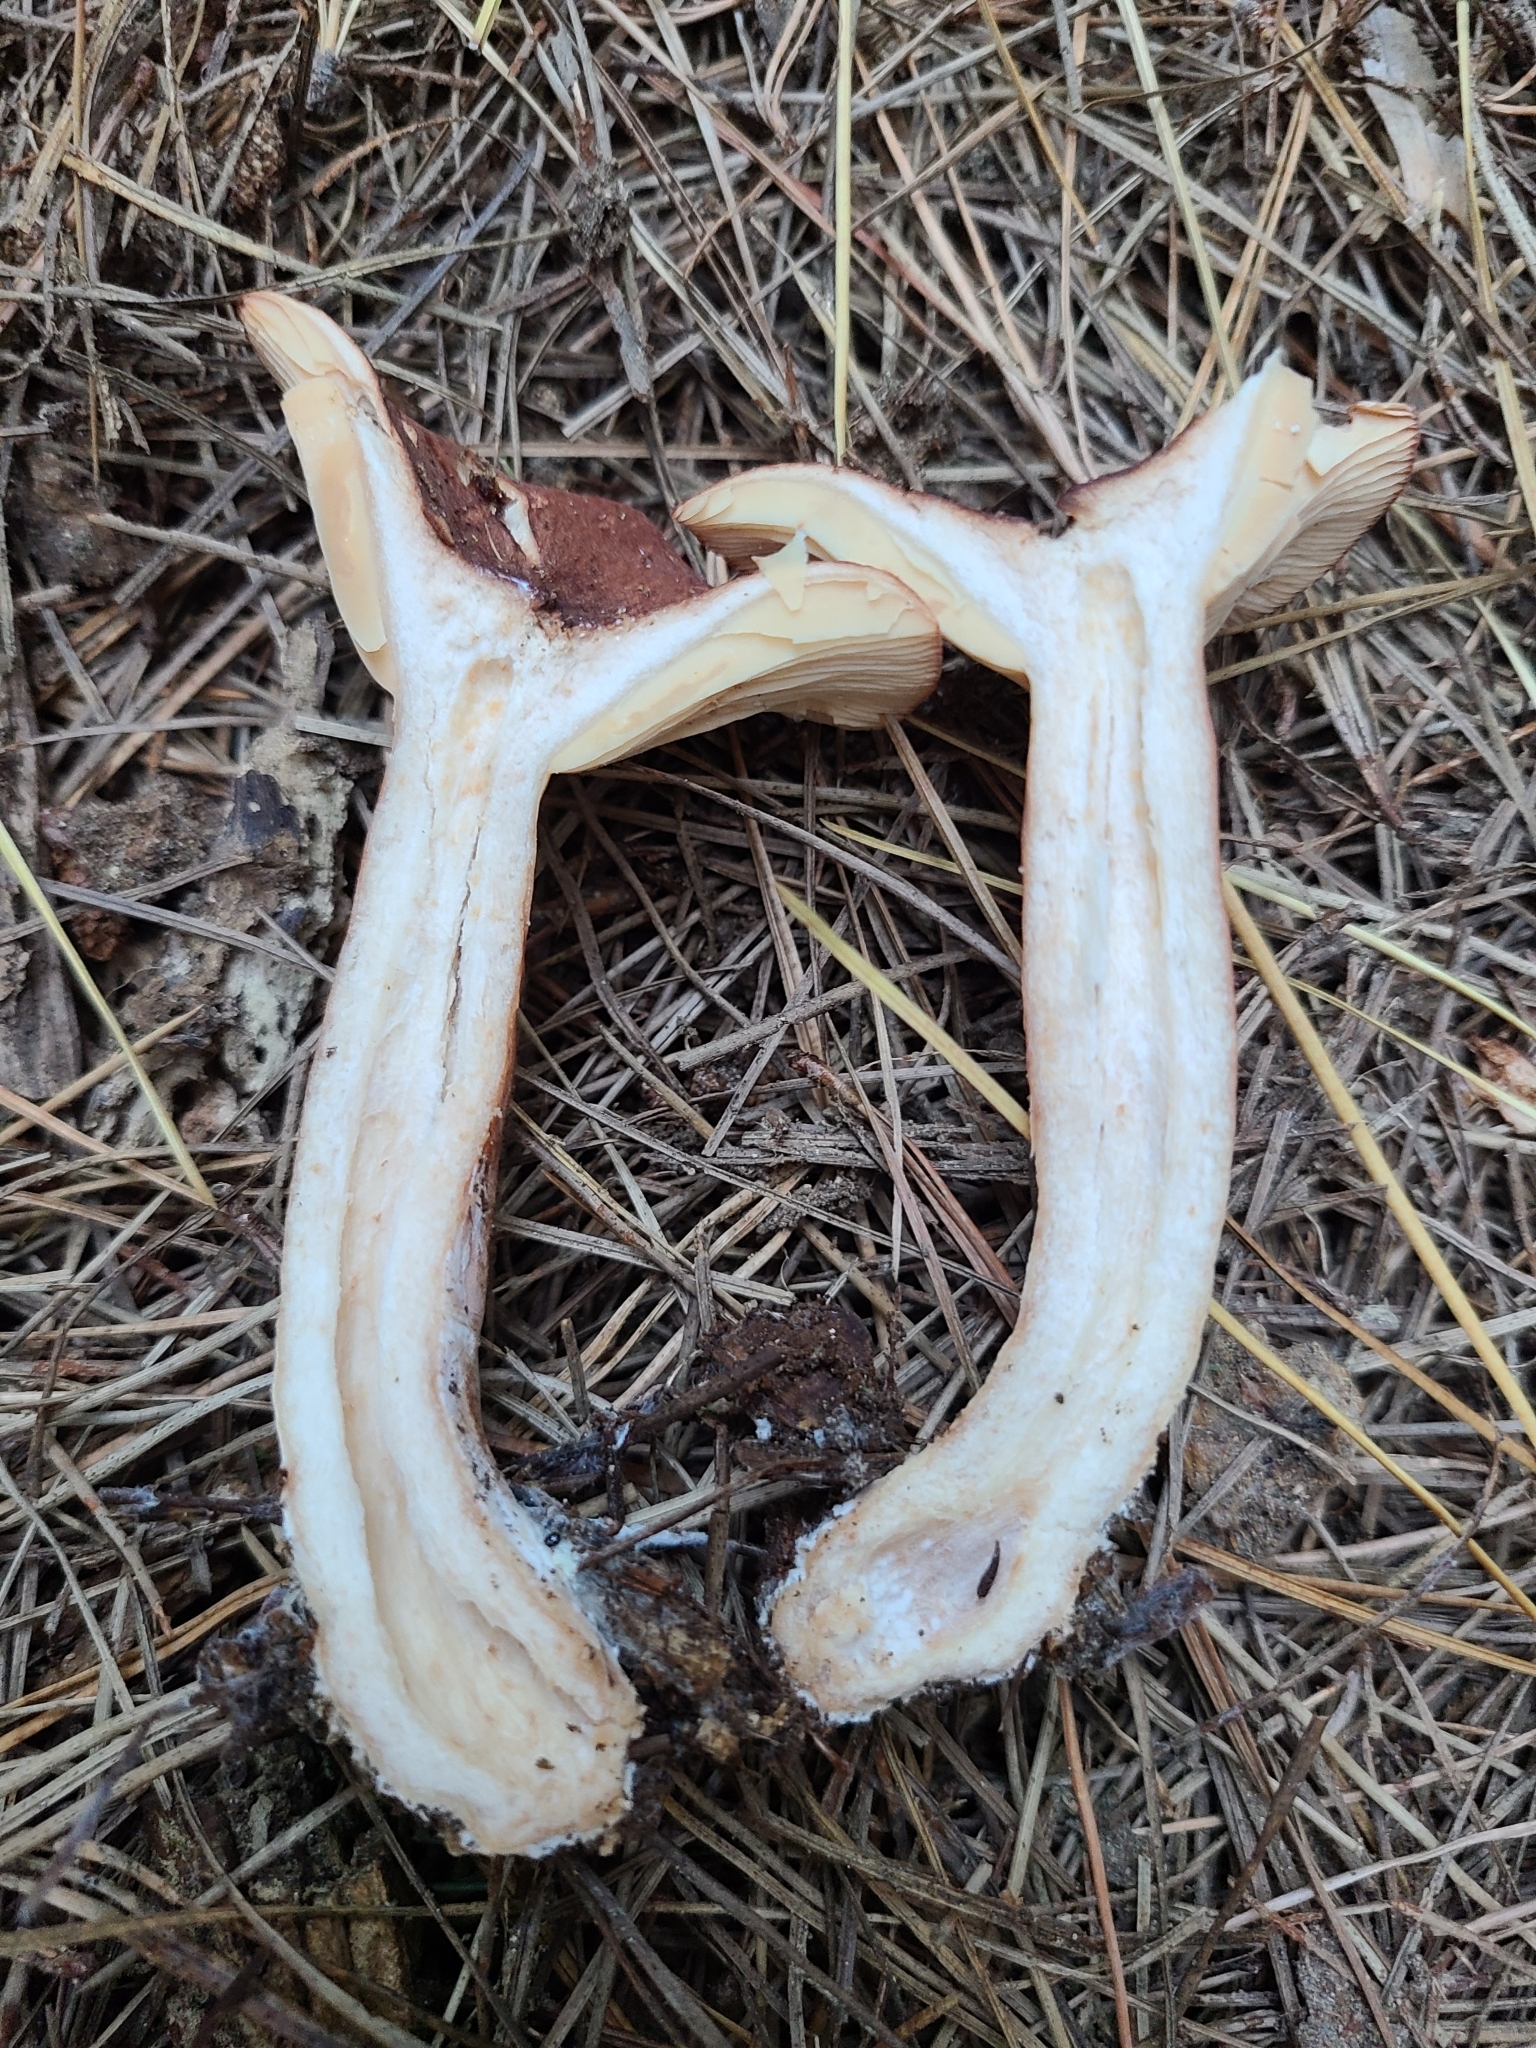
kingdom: Fungi
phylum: Basidiomycota
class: Agaricomycetes
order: Russulales
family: Russulaceae
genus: Lactarius
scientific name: Lactarius rufus
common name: Rufous milk-cap
